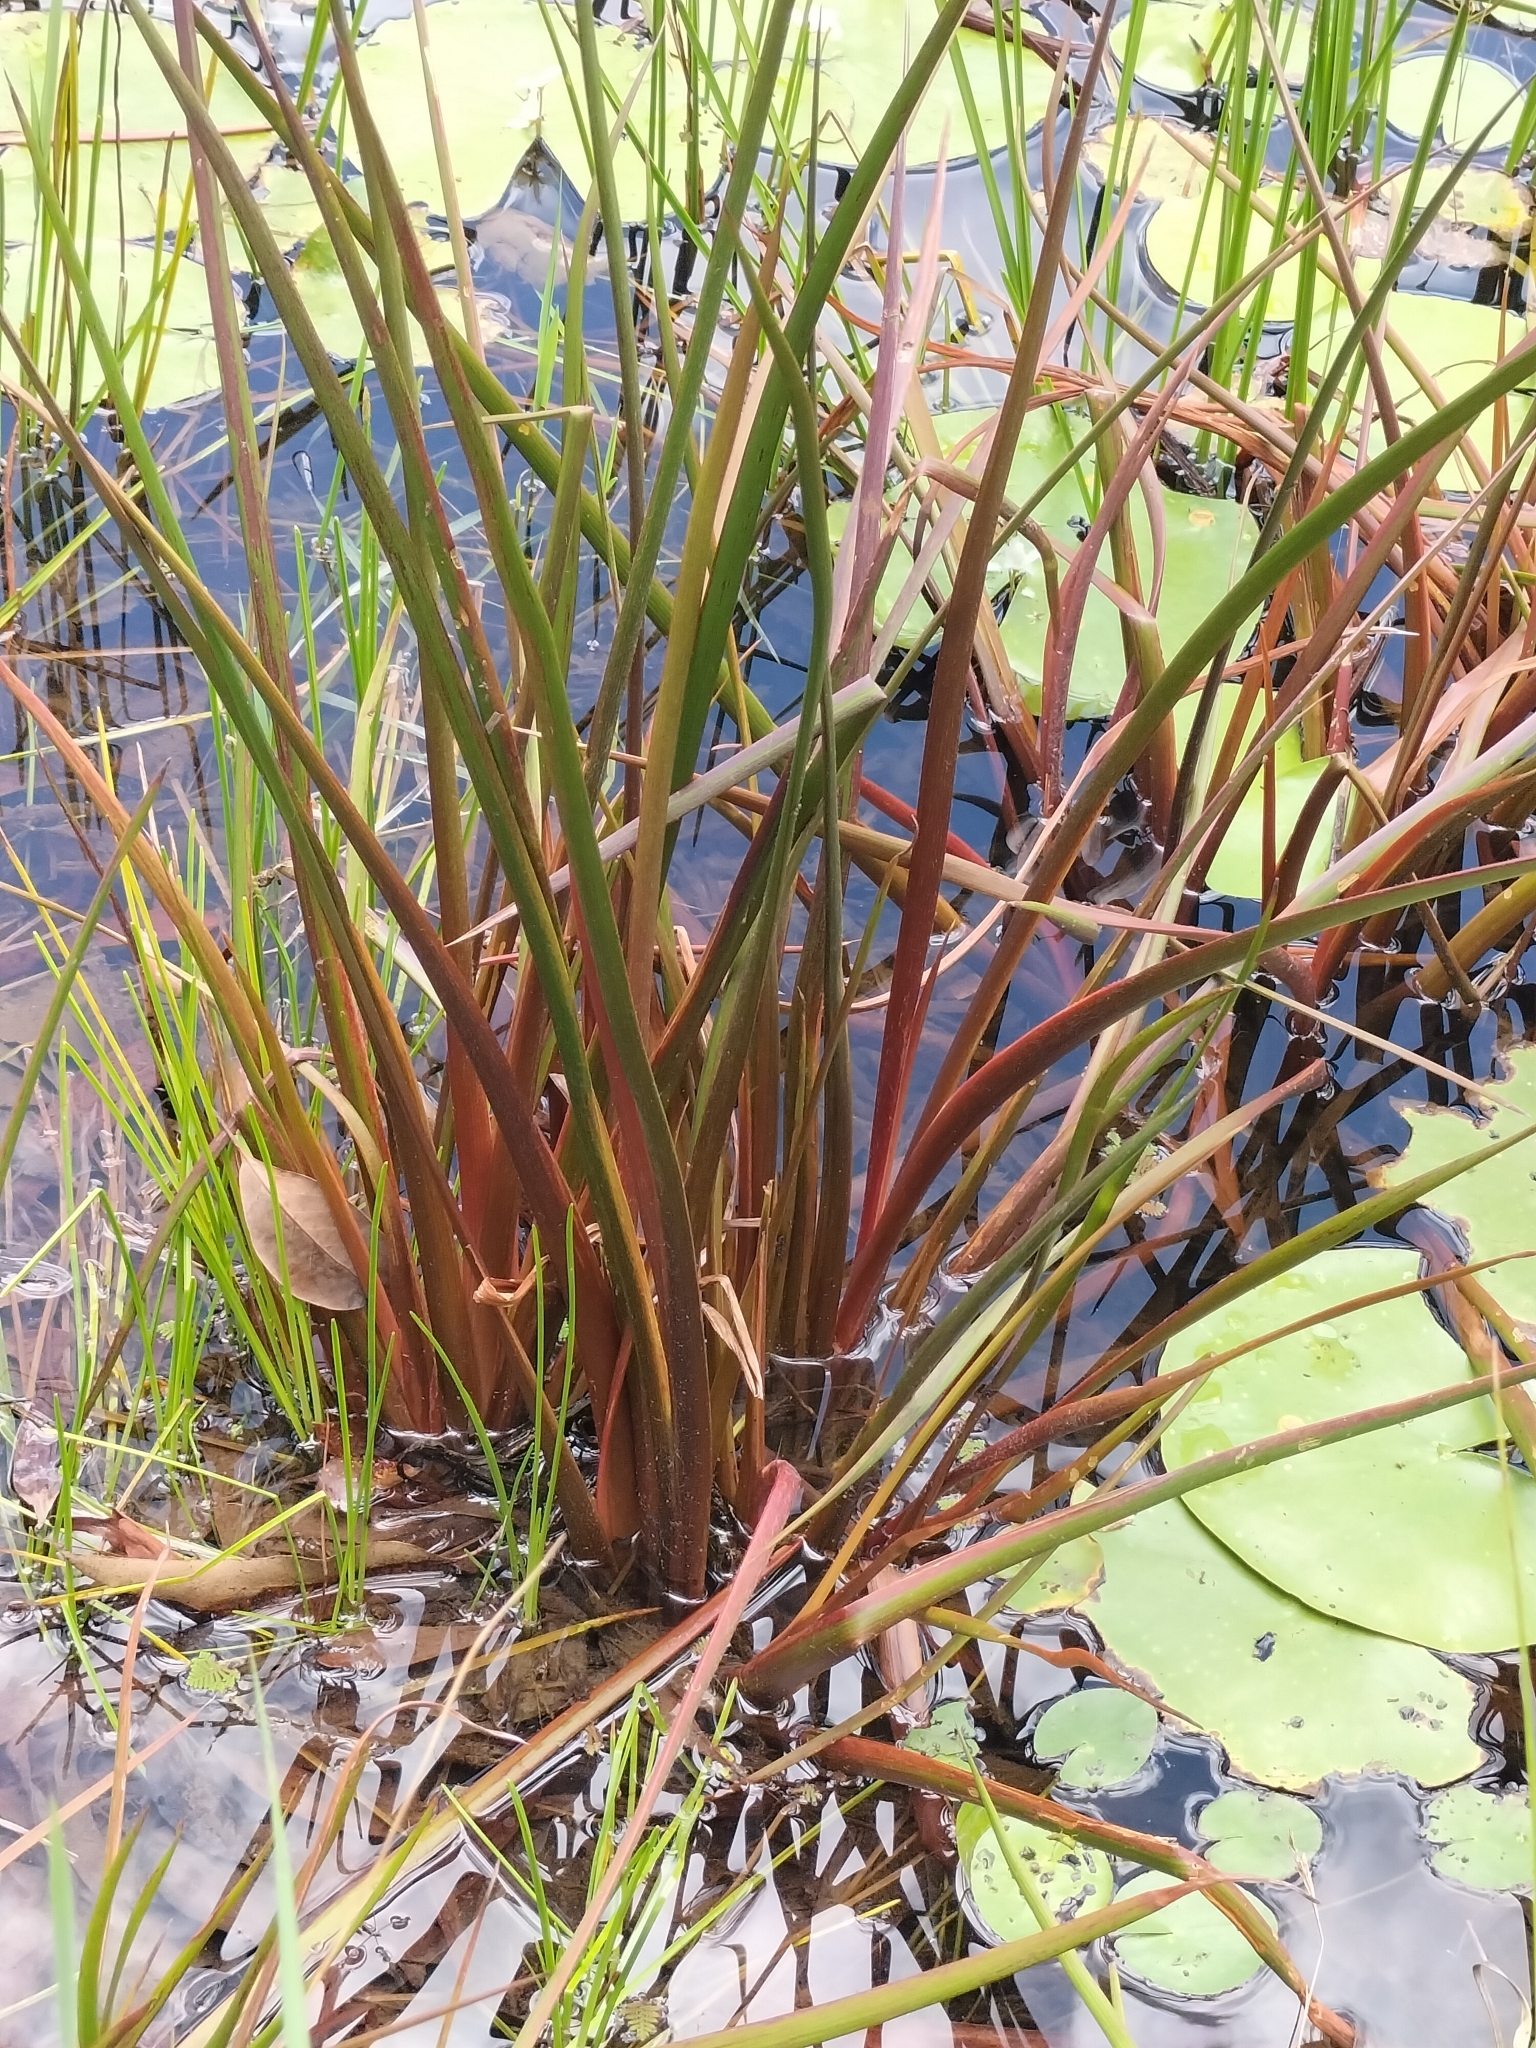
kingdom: Plantae
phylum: Tracheophyta
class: Liliopsida
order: Commelinales
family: Philydraceae
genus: Philydrum
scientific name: Philydrum lanuginosum
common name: Woolly frog's mouth
